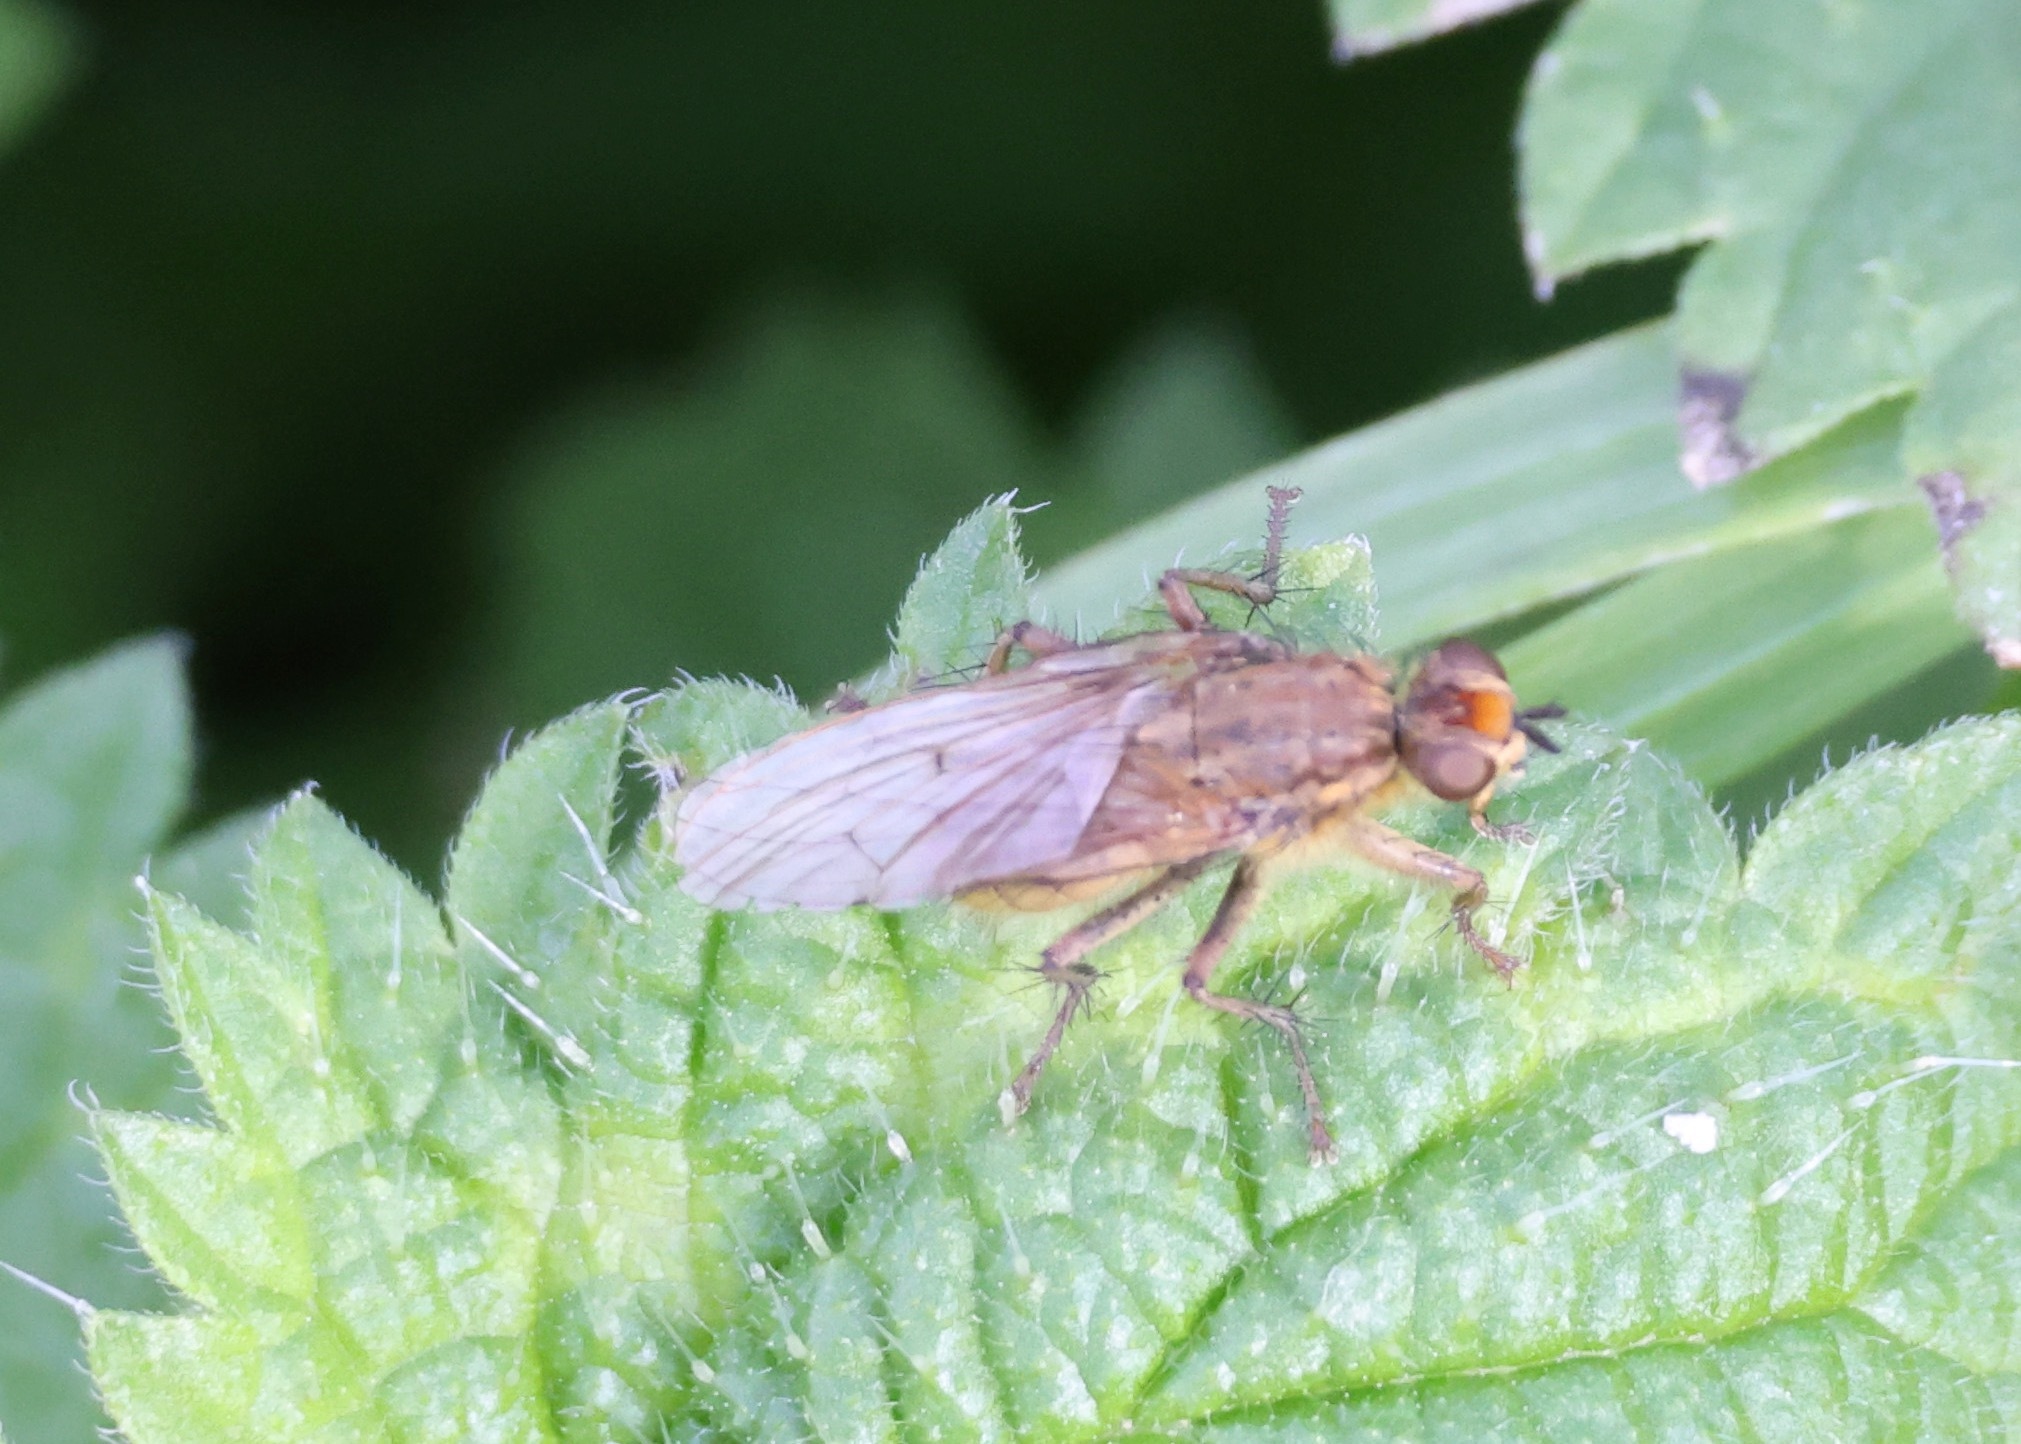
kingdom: Animalia
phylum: Arthropoda
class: Insecta
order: Diptera
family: Scathophagidae
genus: Scathophaga
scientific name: Scathophaga stercoraria
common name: Yellow dung fly
